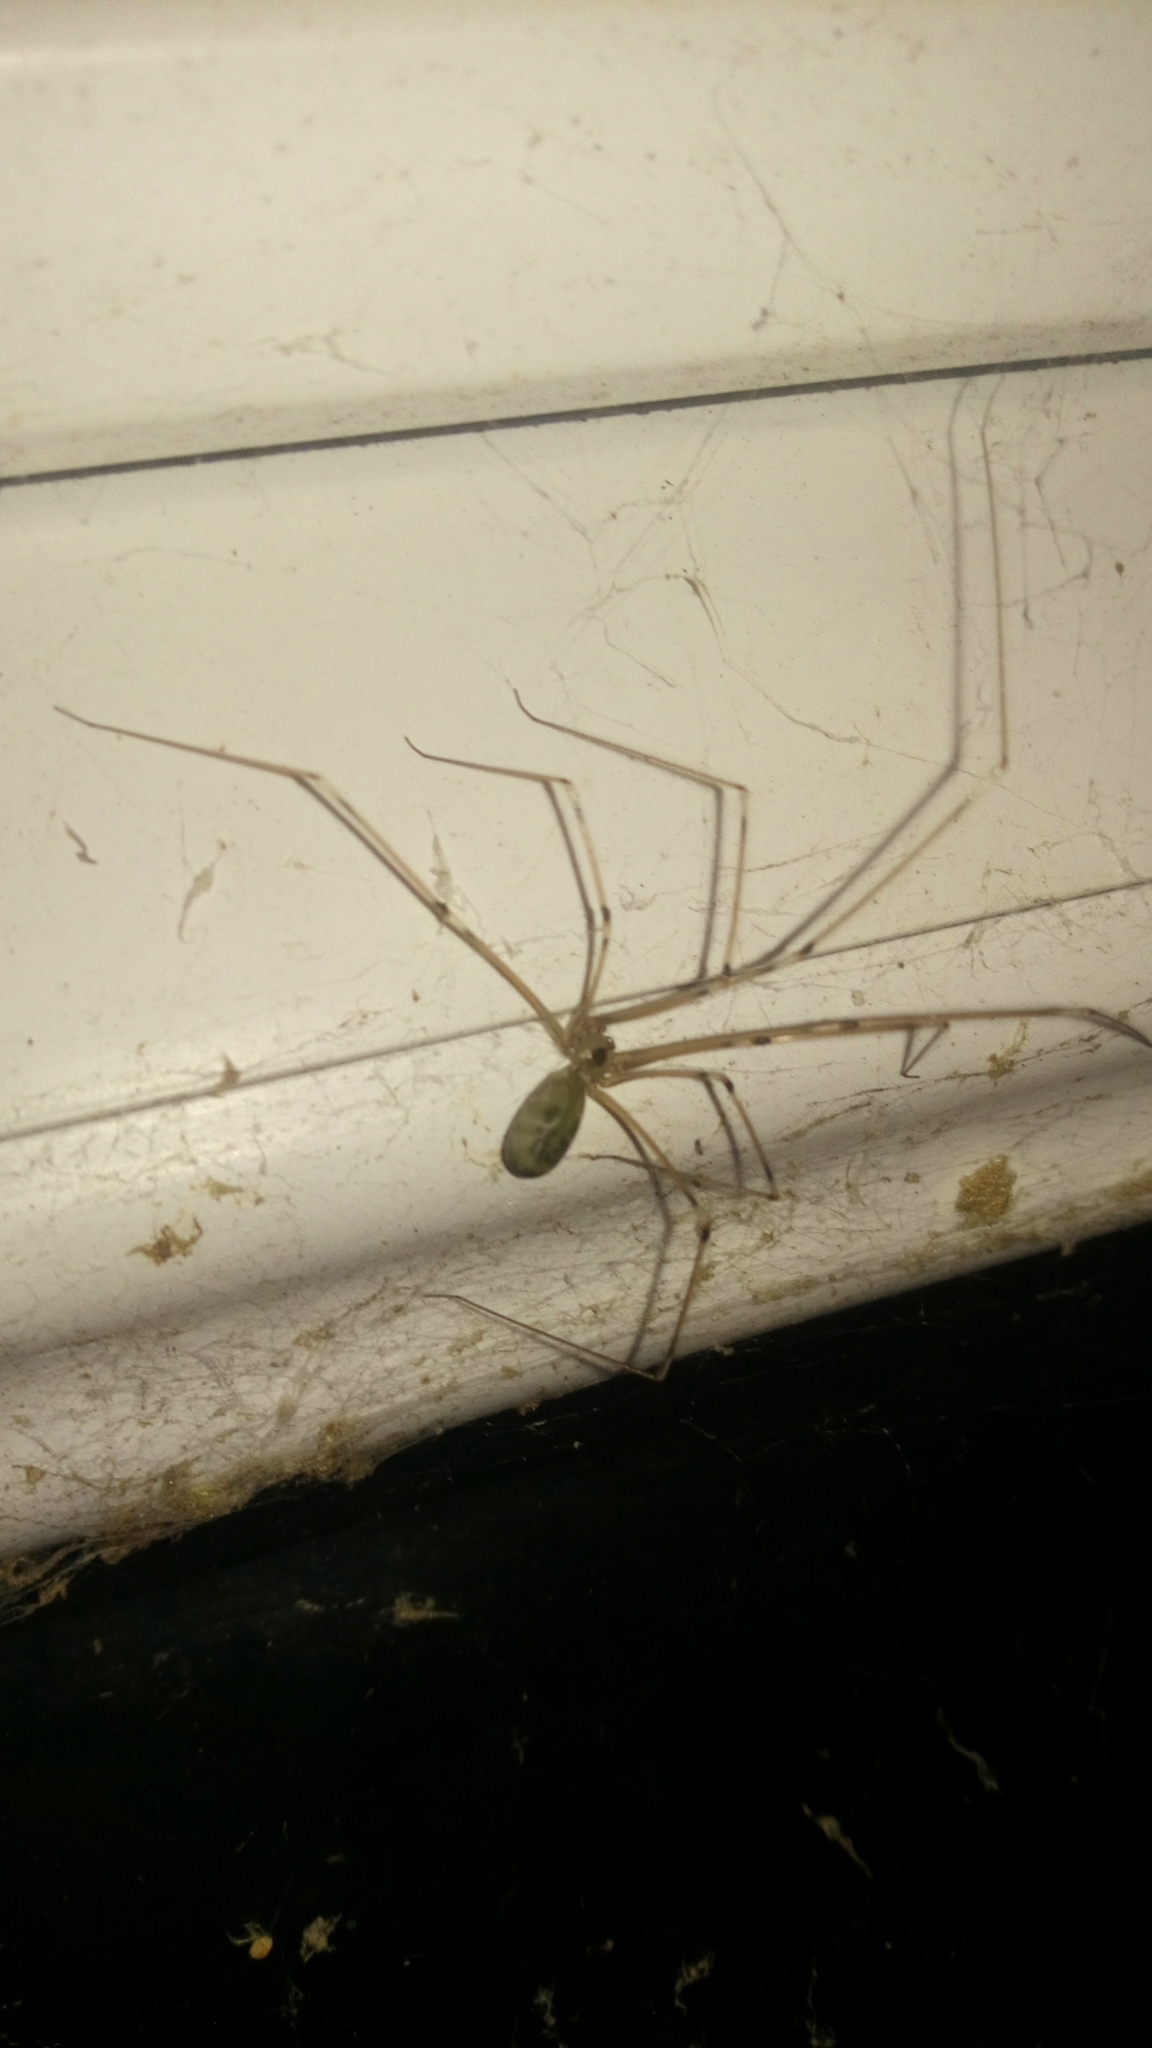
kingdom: Animalia
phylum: Arthropoda
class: Arachnida
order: Araneae
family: Pholcidae
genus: Pholcus
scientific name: Pholcus phalangioides
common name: Longbodied cellar spider
